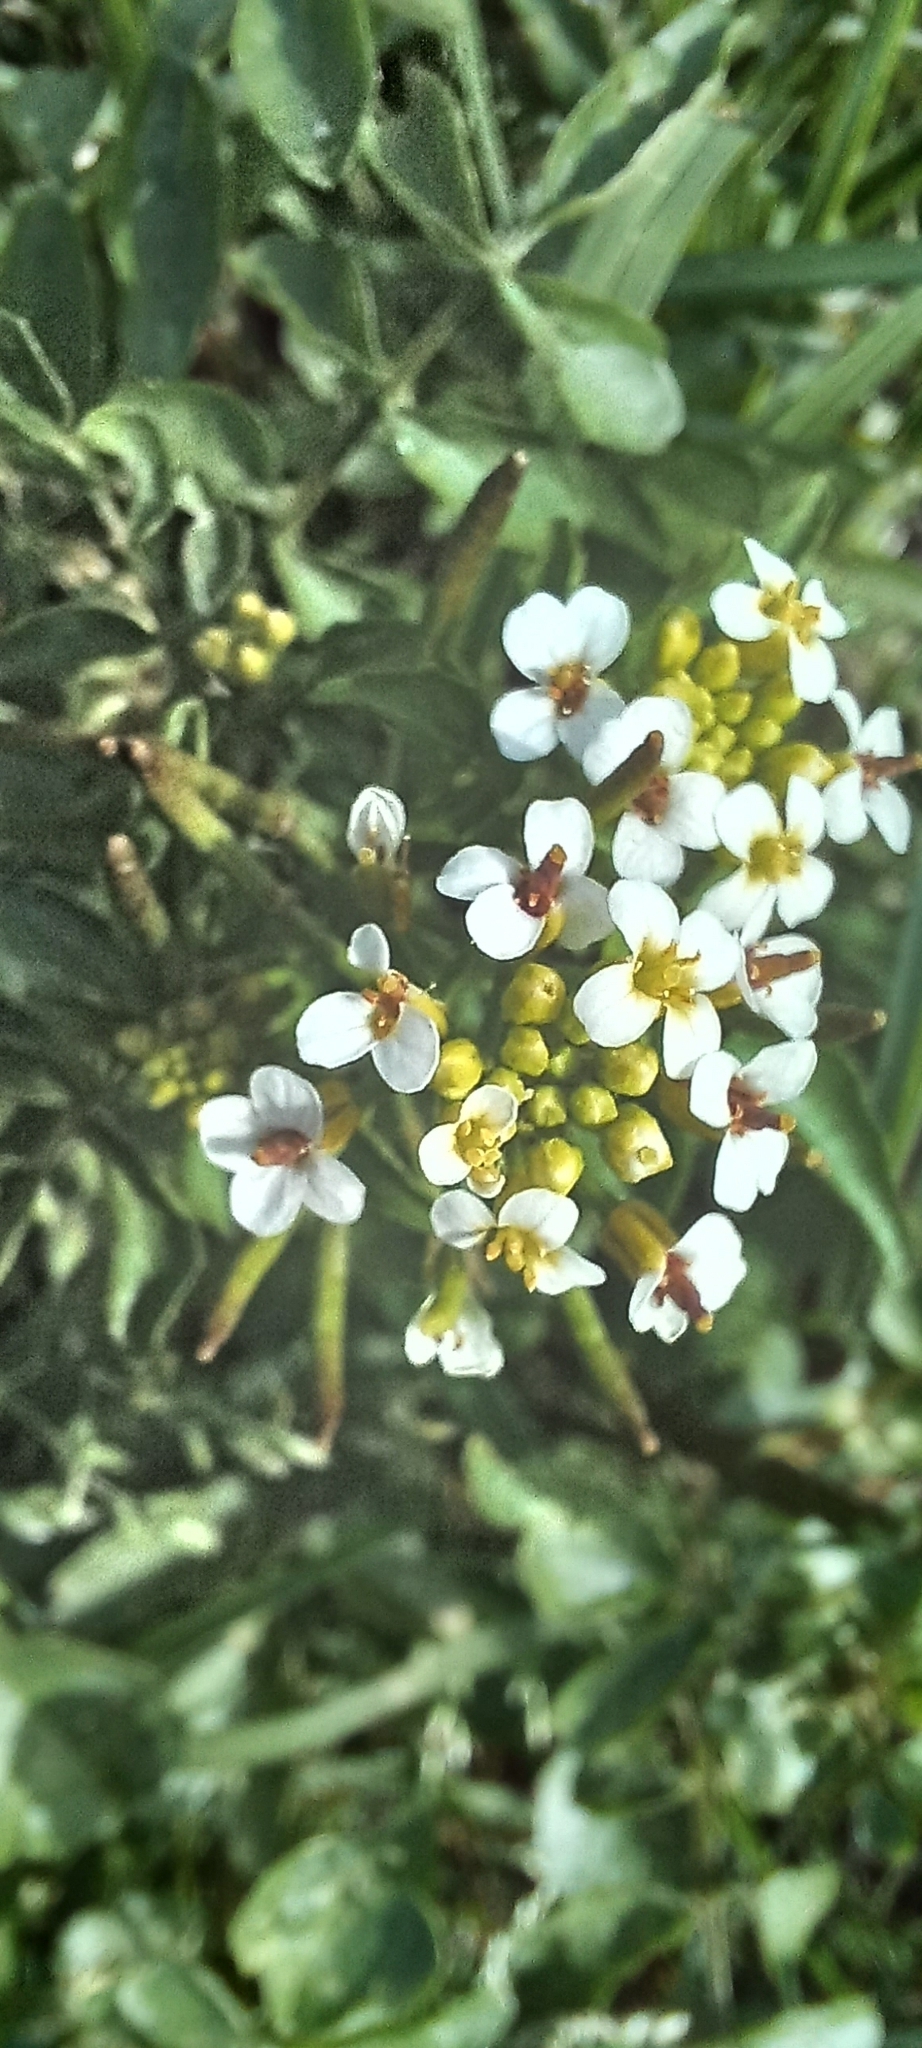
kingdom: Plantae
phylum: Tracheophyta
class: Magnoliopsida
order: Brassicales
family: Brassicaceae
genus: Nasturtium
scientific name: Nasturtium officinale
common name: Watercress
